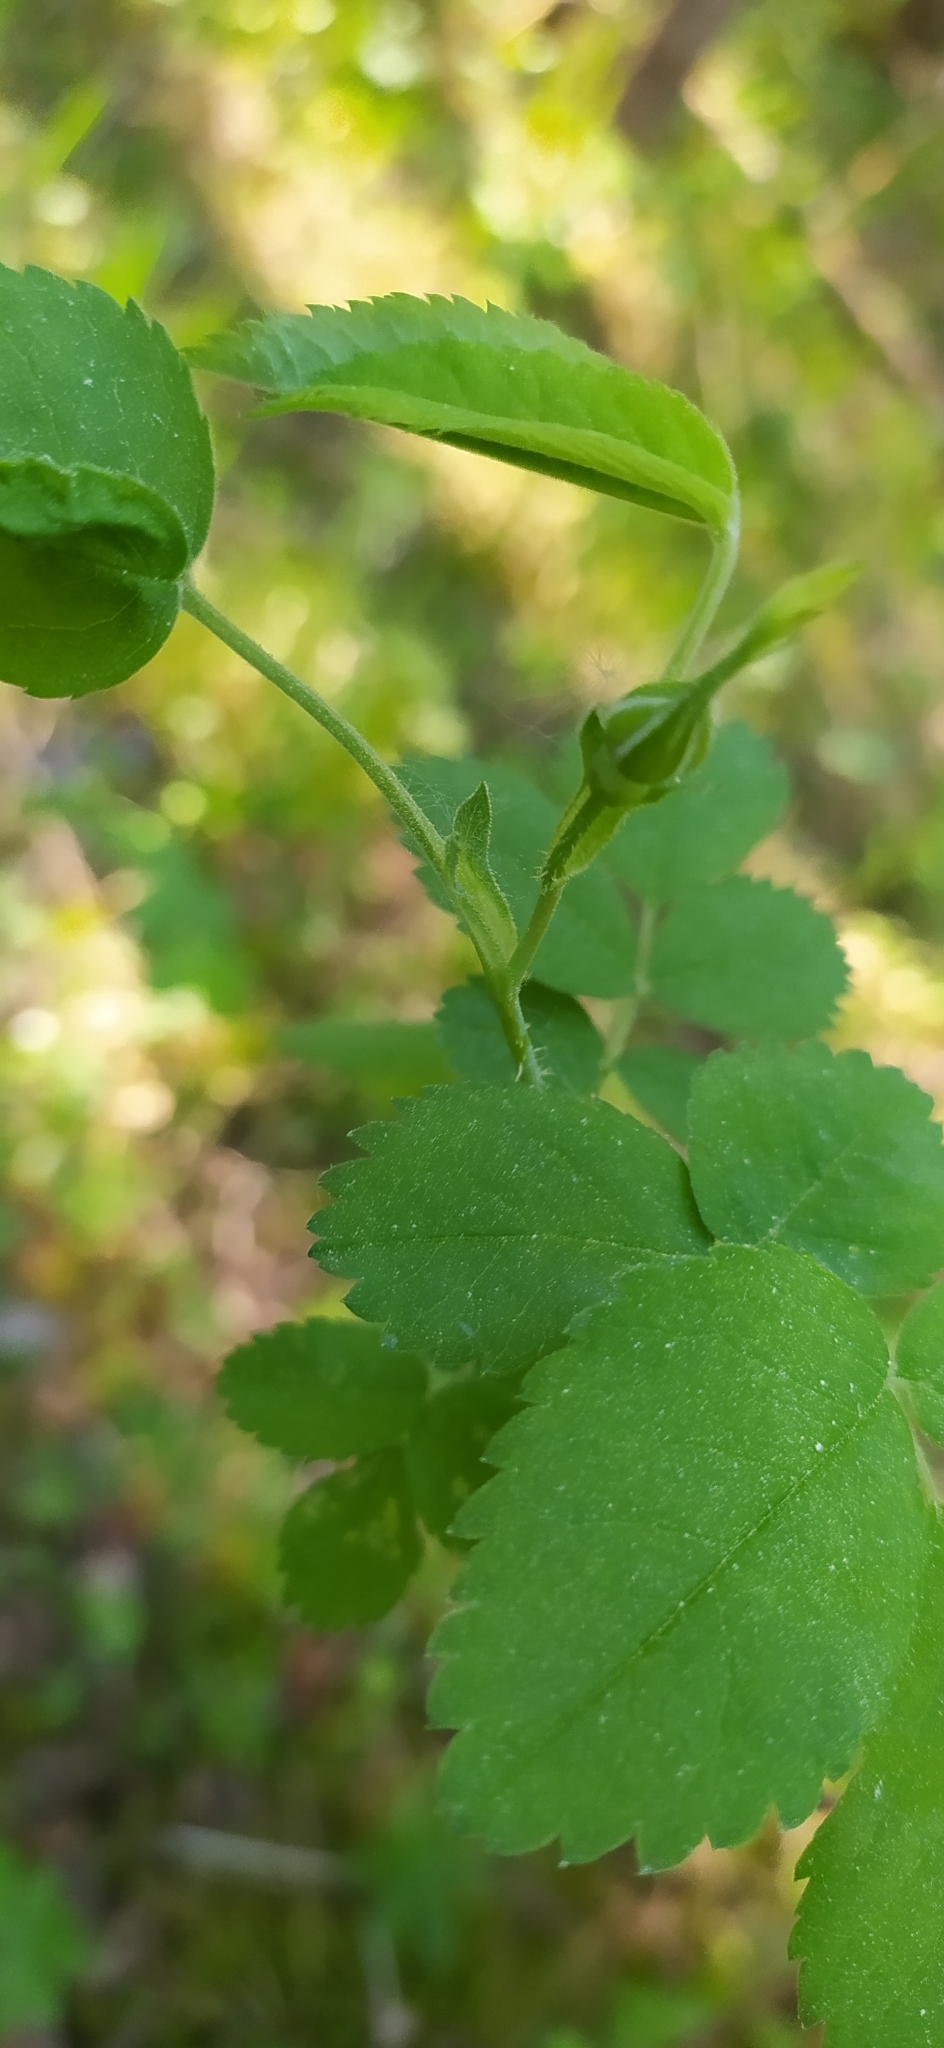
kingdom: Plantae
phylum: Tracheophyta
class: Magnoliopsida
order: Rosales
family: Rosaceae
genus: Rosa
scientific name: Rosa acicularis
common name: Prickly rose
